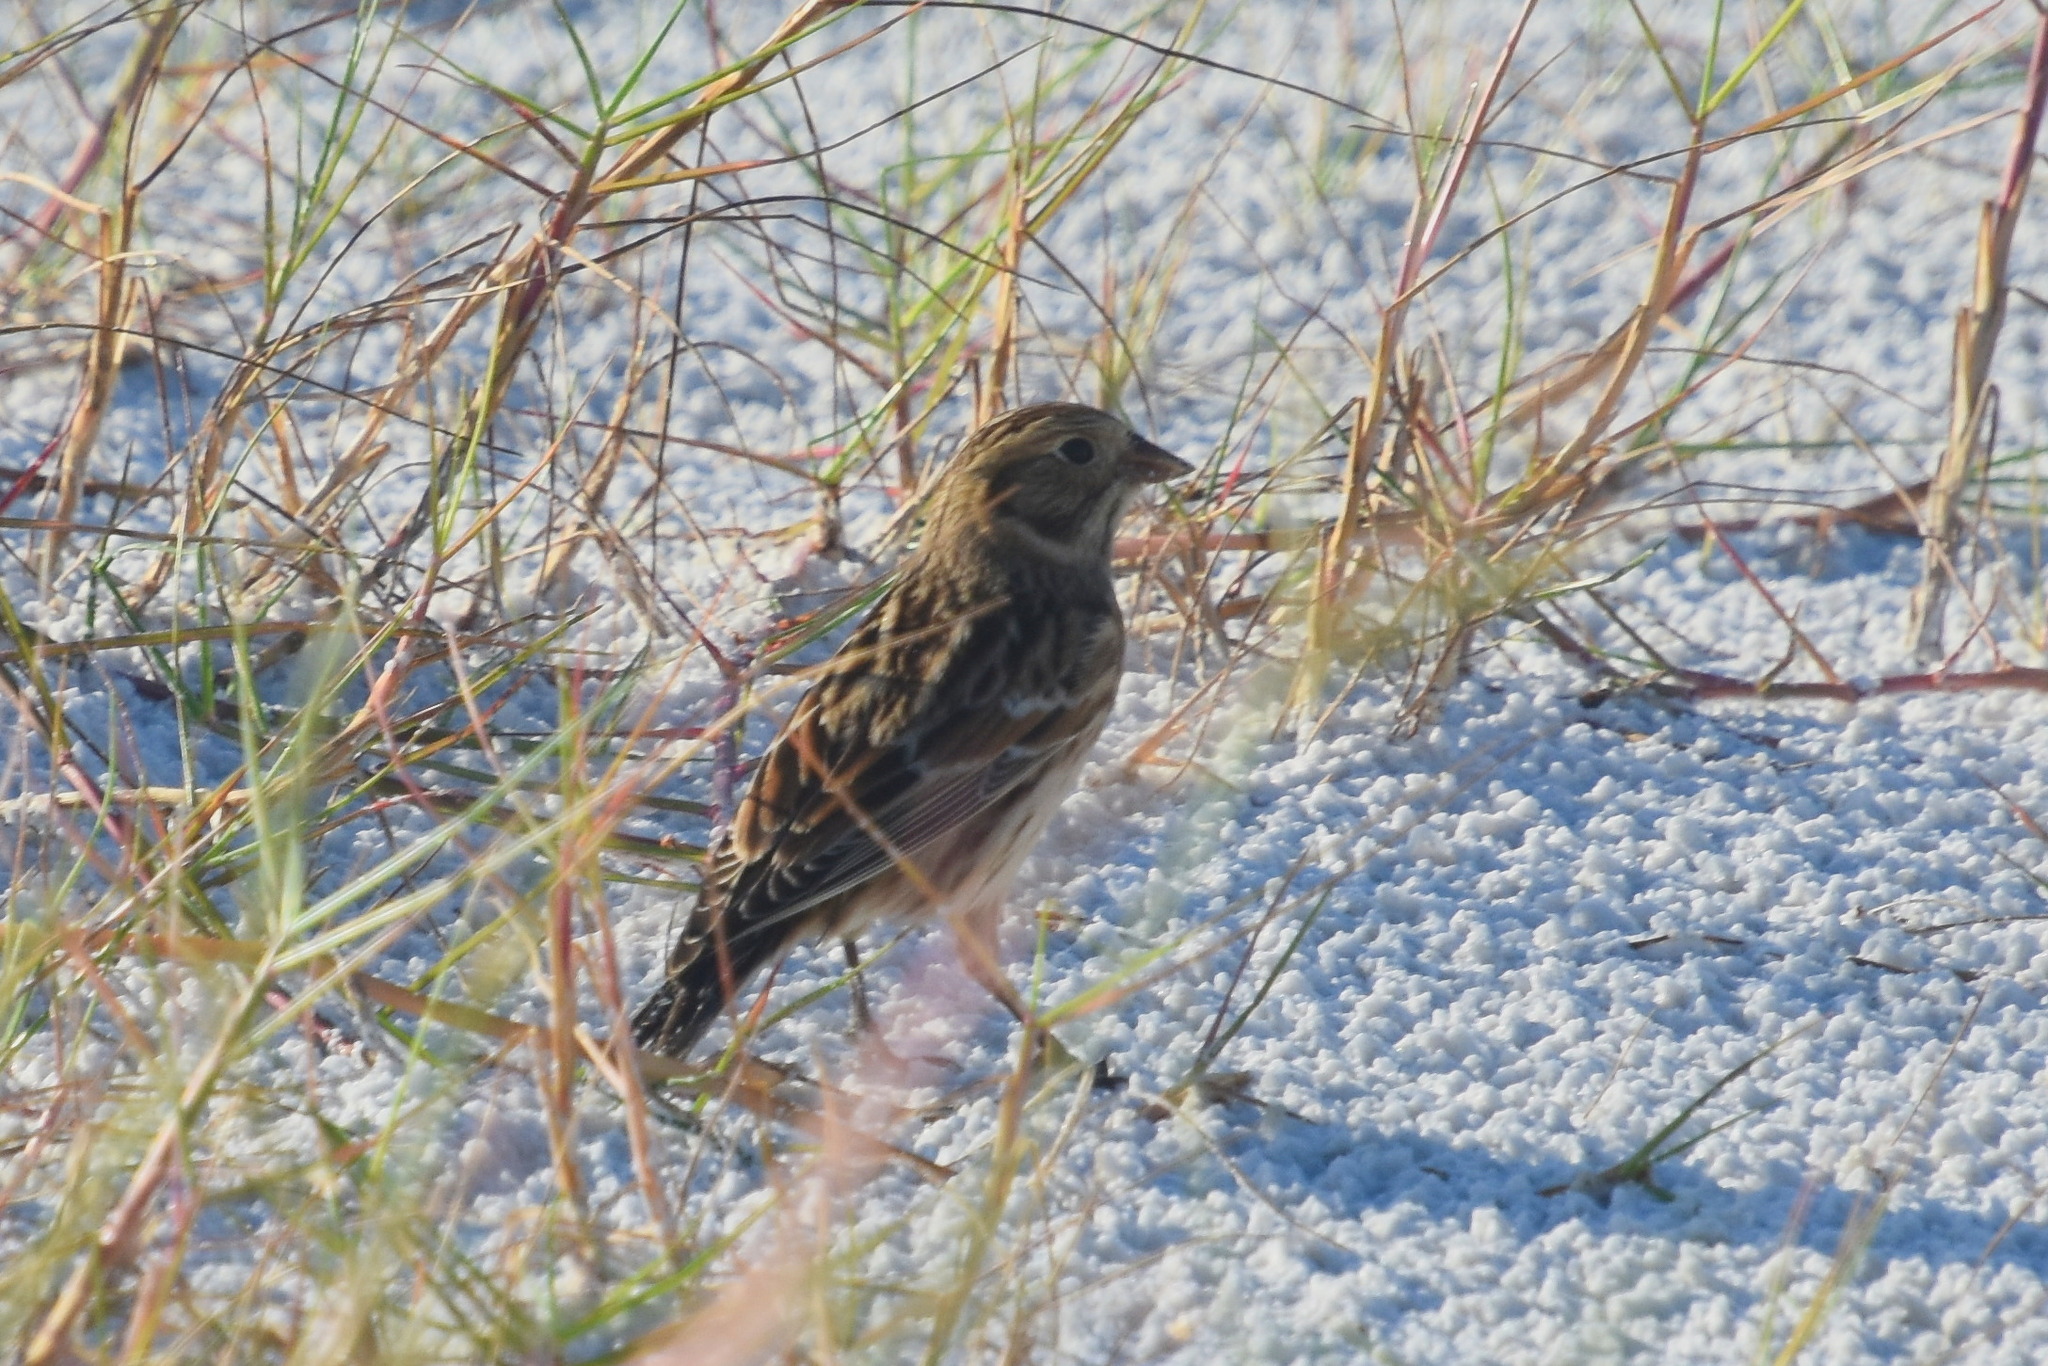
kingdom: Animalia
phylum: Chordata
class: Aves
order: Passeriformes
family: Calcariidae
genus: Calcarius
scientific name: Calcarius lapponicus
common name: Lapland longspur
